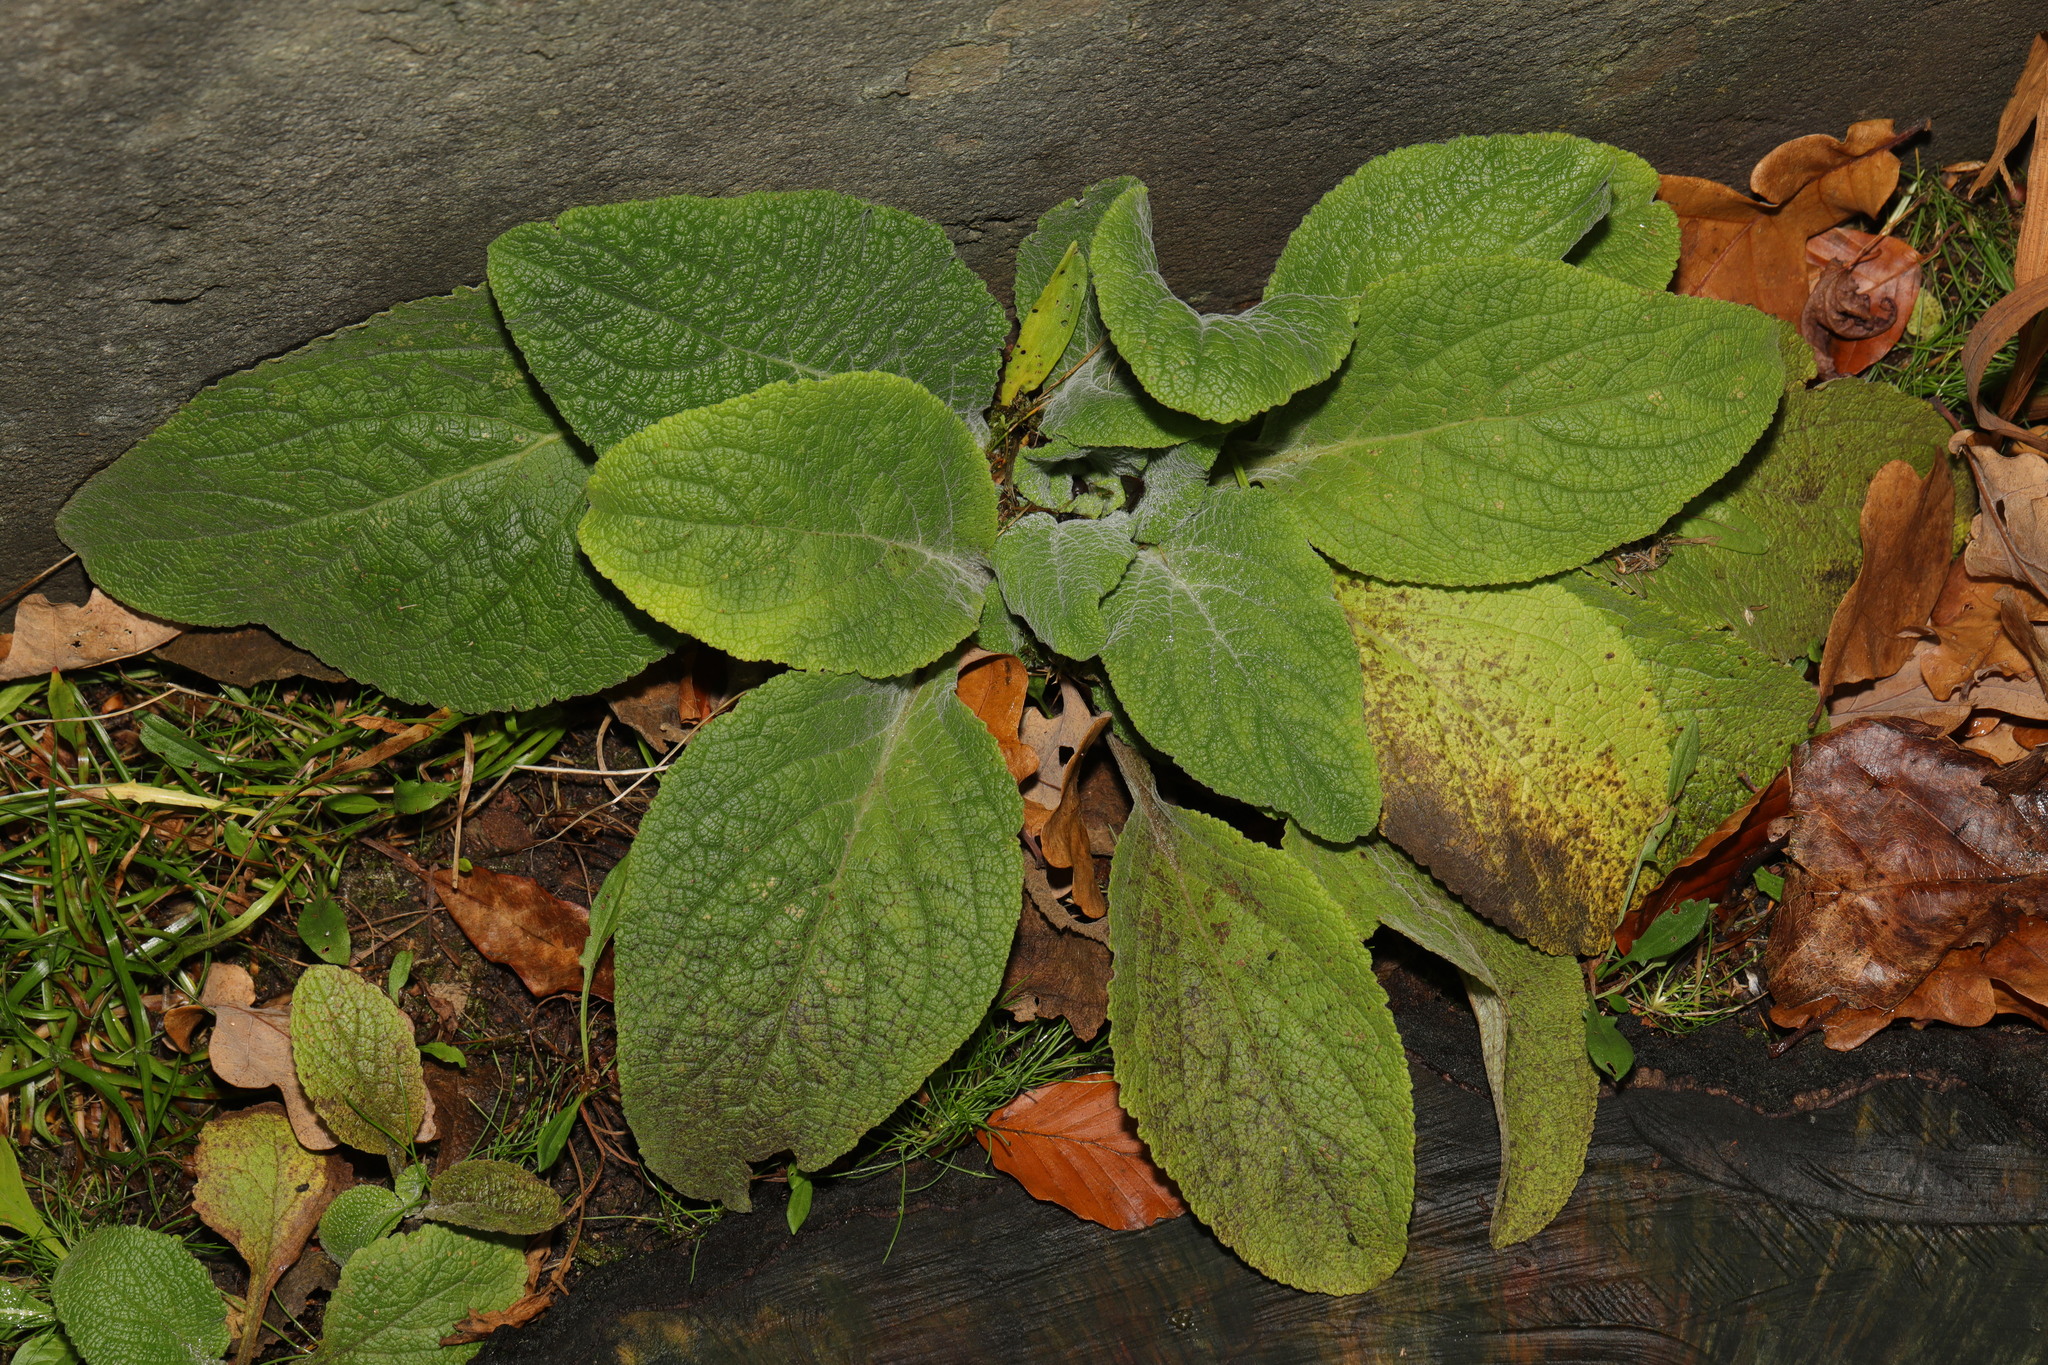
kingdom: Plantae
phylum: Tracheophyta
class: Magnoliopsida
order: Lamiales
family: Plantaginaceae
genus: Digitalis
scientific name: Digitalis purpurea
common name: Foxglove
